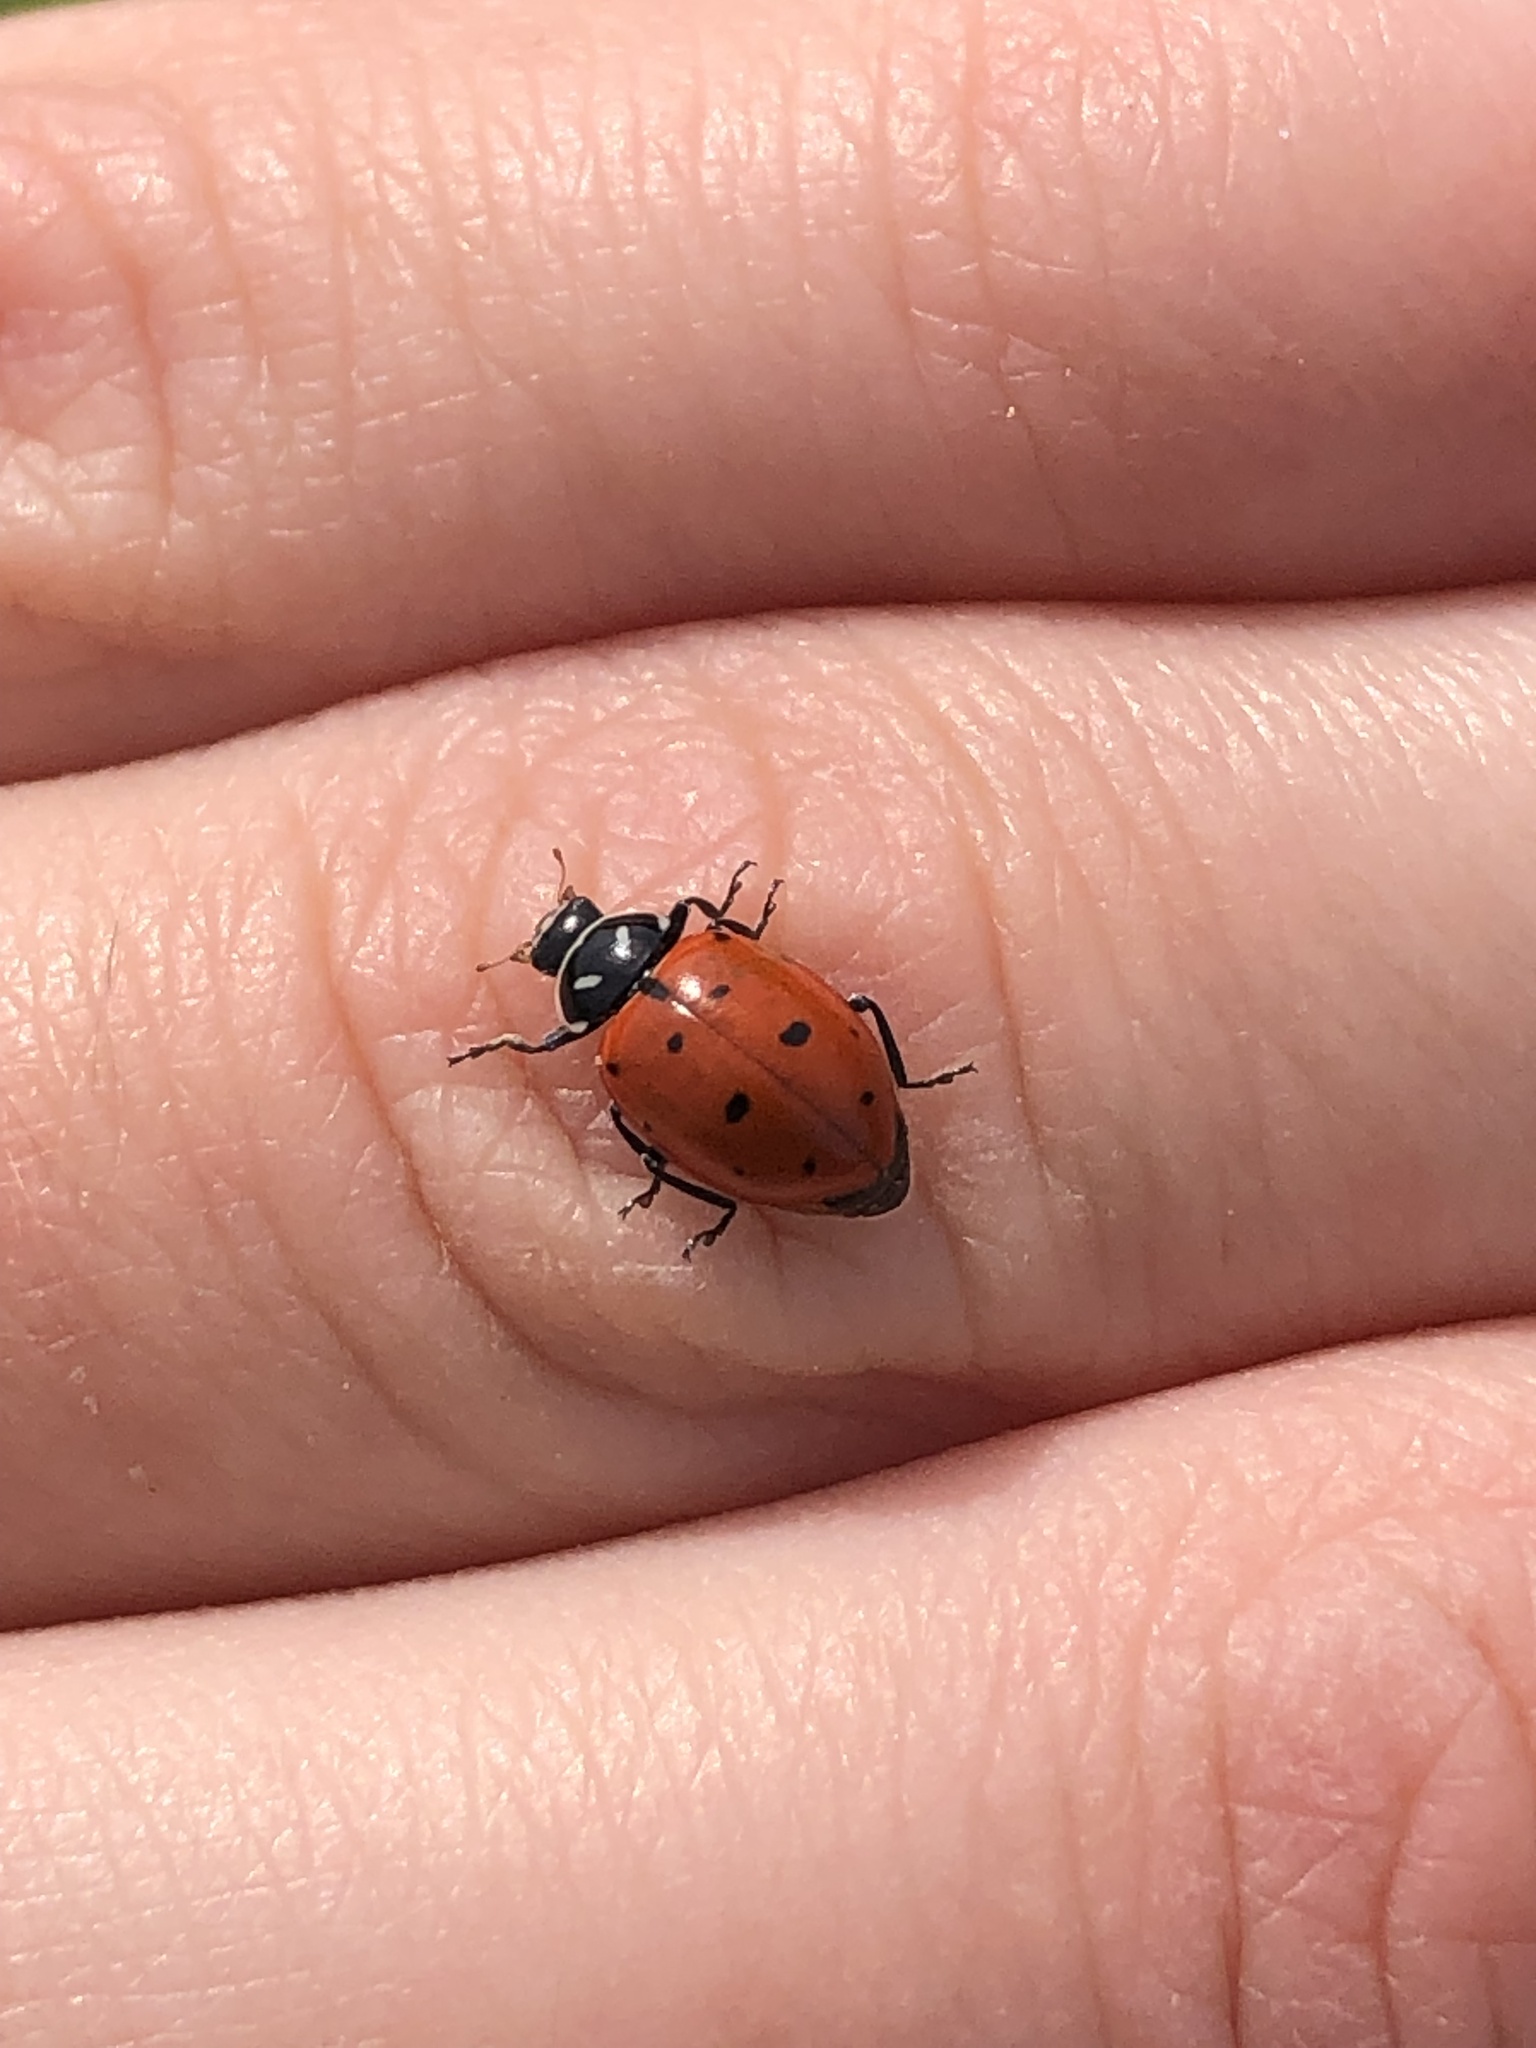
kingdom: Animalia
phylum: Arthropoda
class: Insecta
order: Coleoptera
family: Coccinellidae
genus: Hippodamia
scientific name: Hippodamia convergens
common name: Convergent lady beetle
